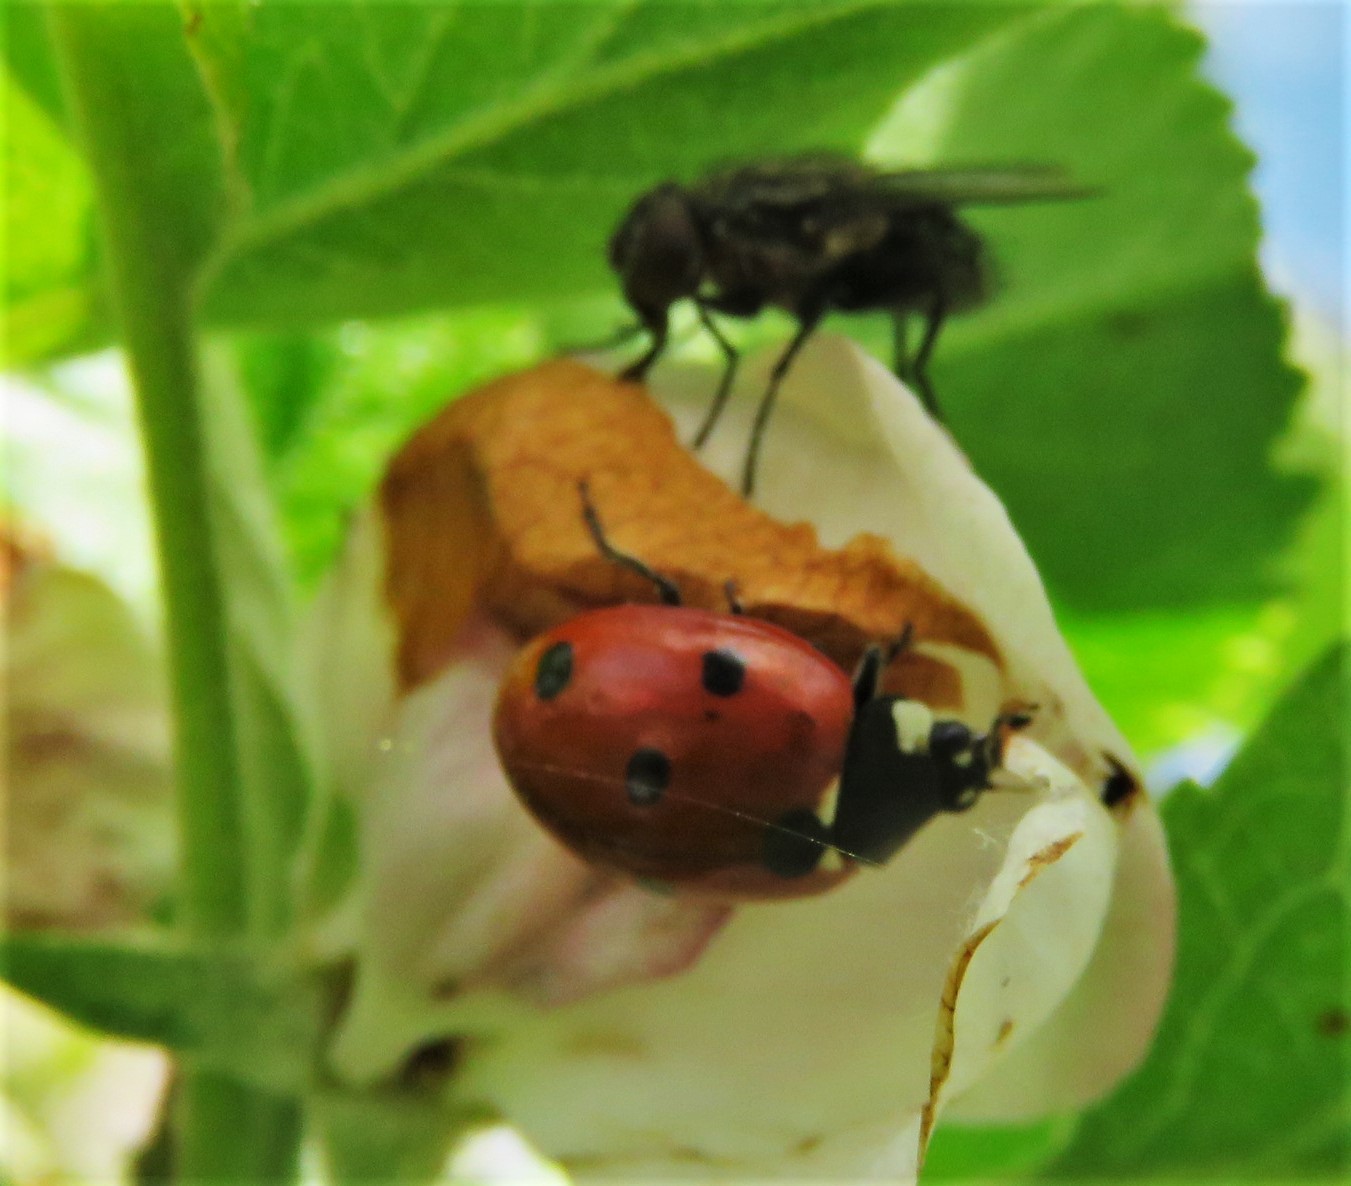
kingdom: Animalia
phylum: Arthropoda
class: Insecta
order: Coleoptera
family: Coccinellidae
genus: Coccinella
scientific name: Coccinella septempunctata
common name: Sevenspotted lady beetle
